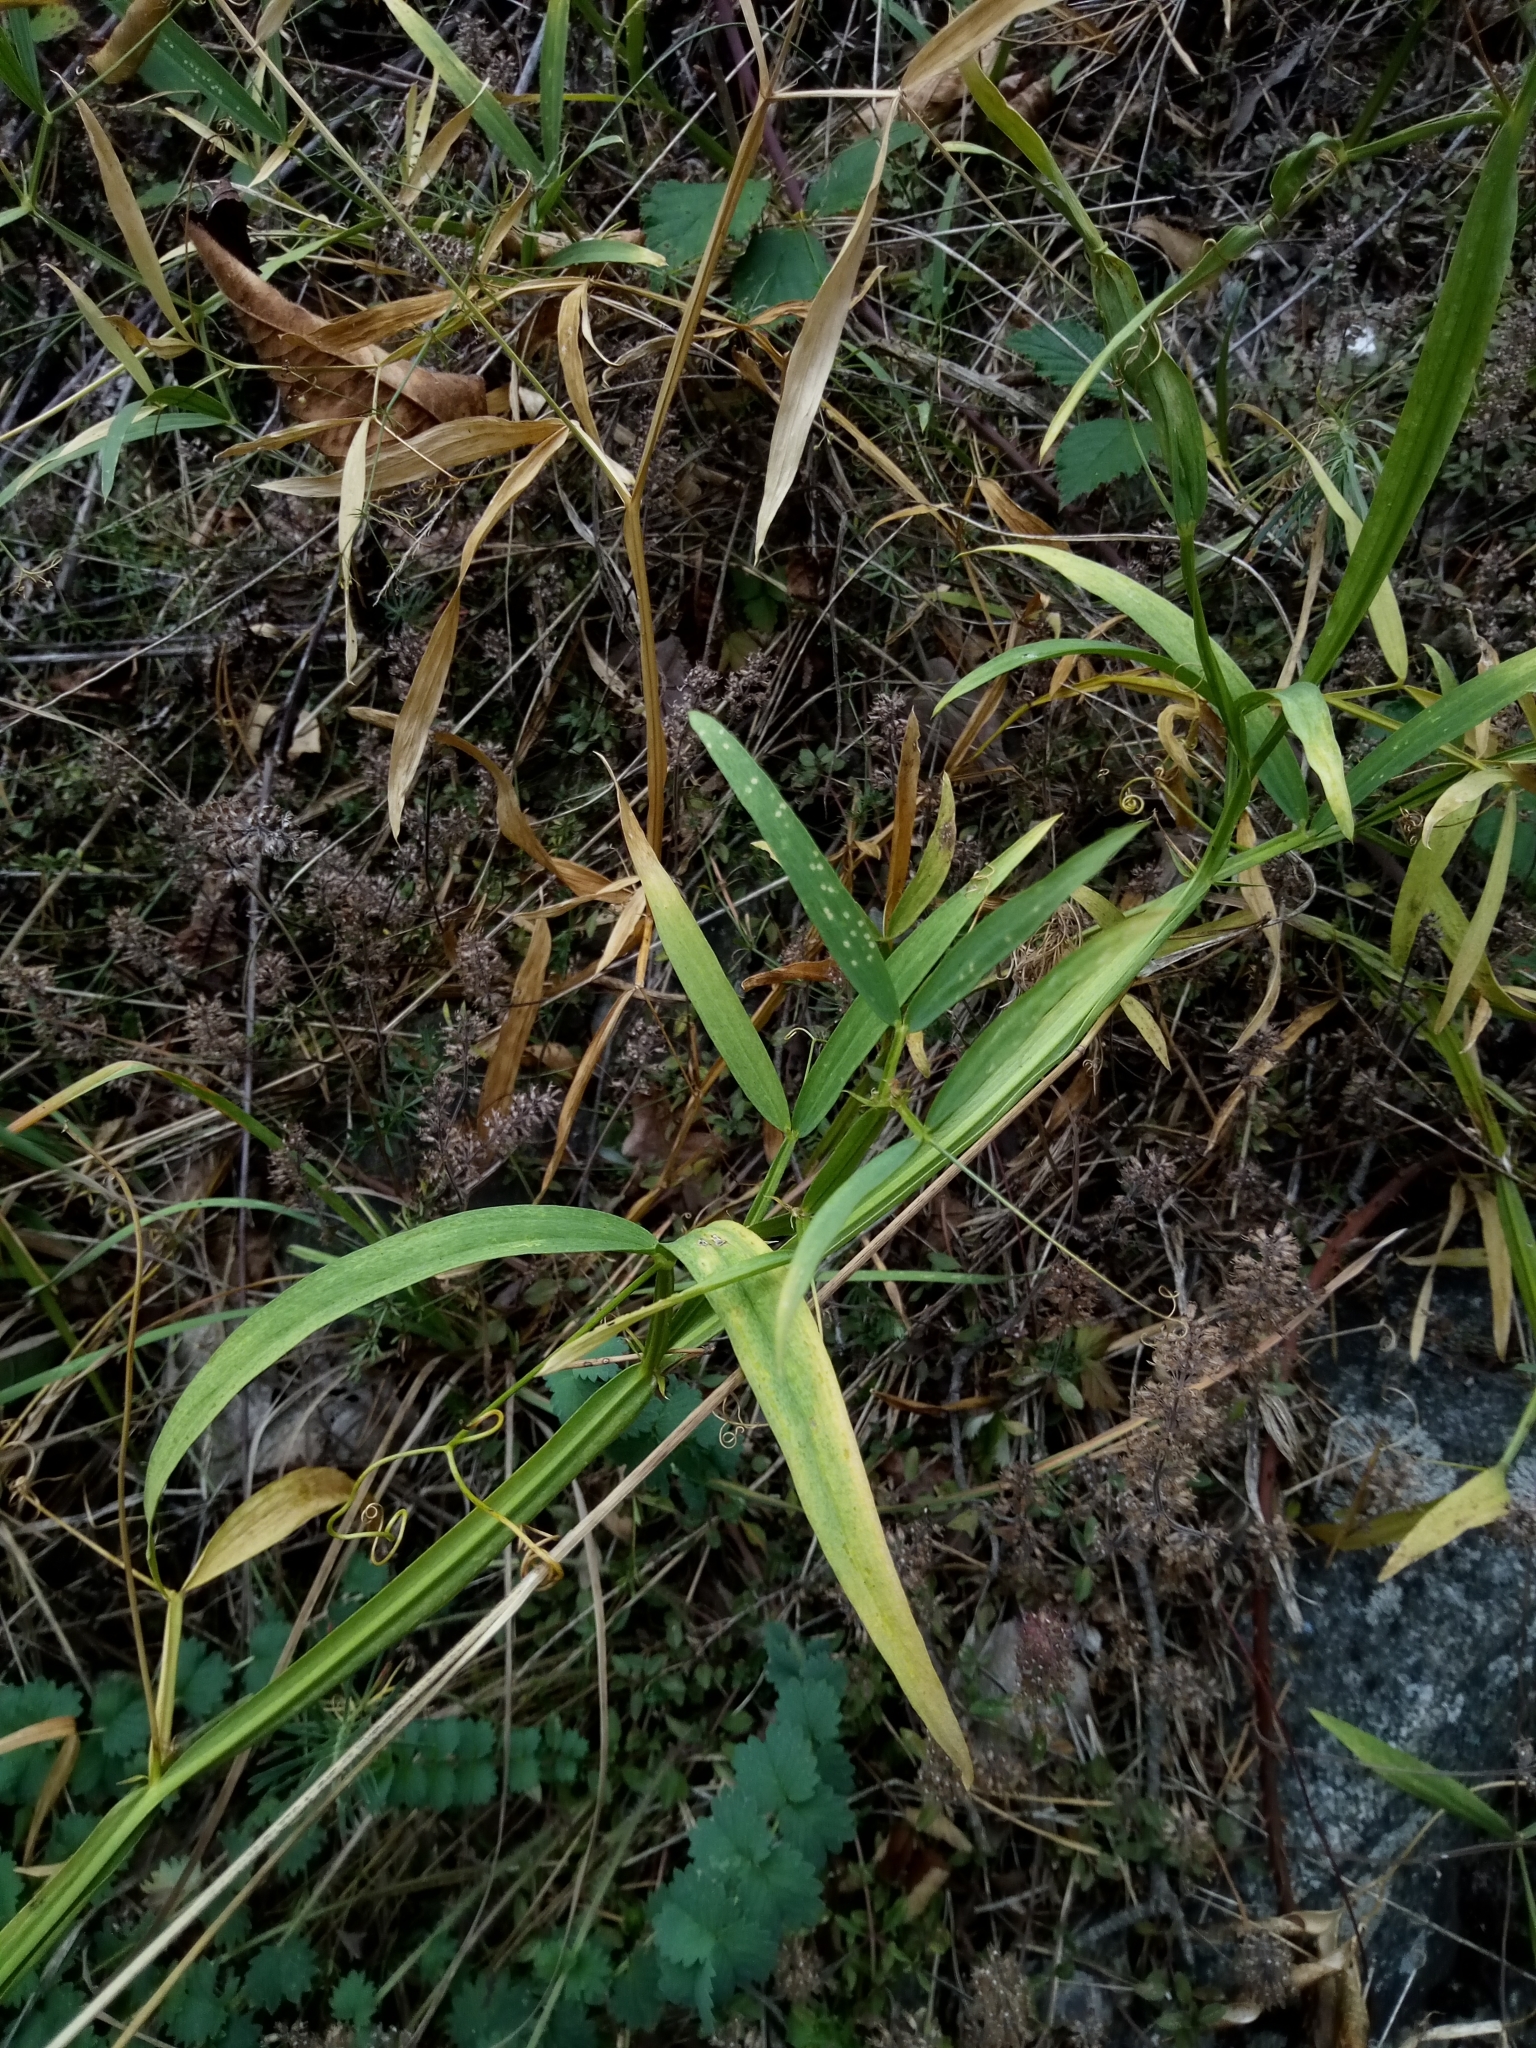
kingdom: Plantae
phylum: Tracheophyta
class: Magnoliopsida
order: Fabales
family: Fabaceae
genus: Lathyrus
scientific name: Lathyrus sylvestris
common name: Flat pea
